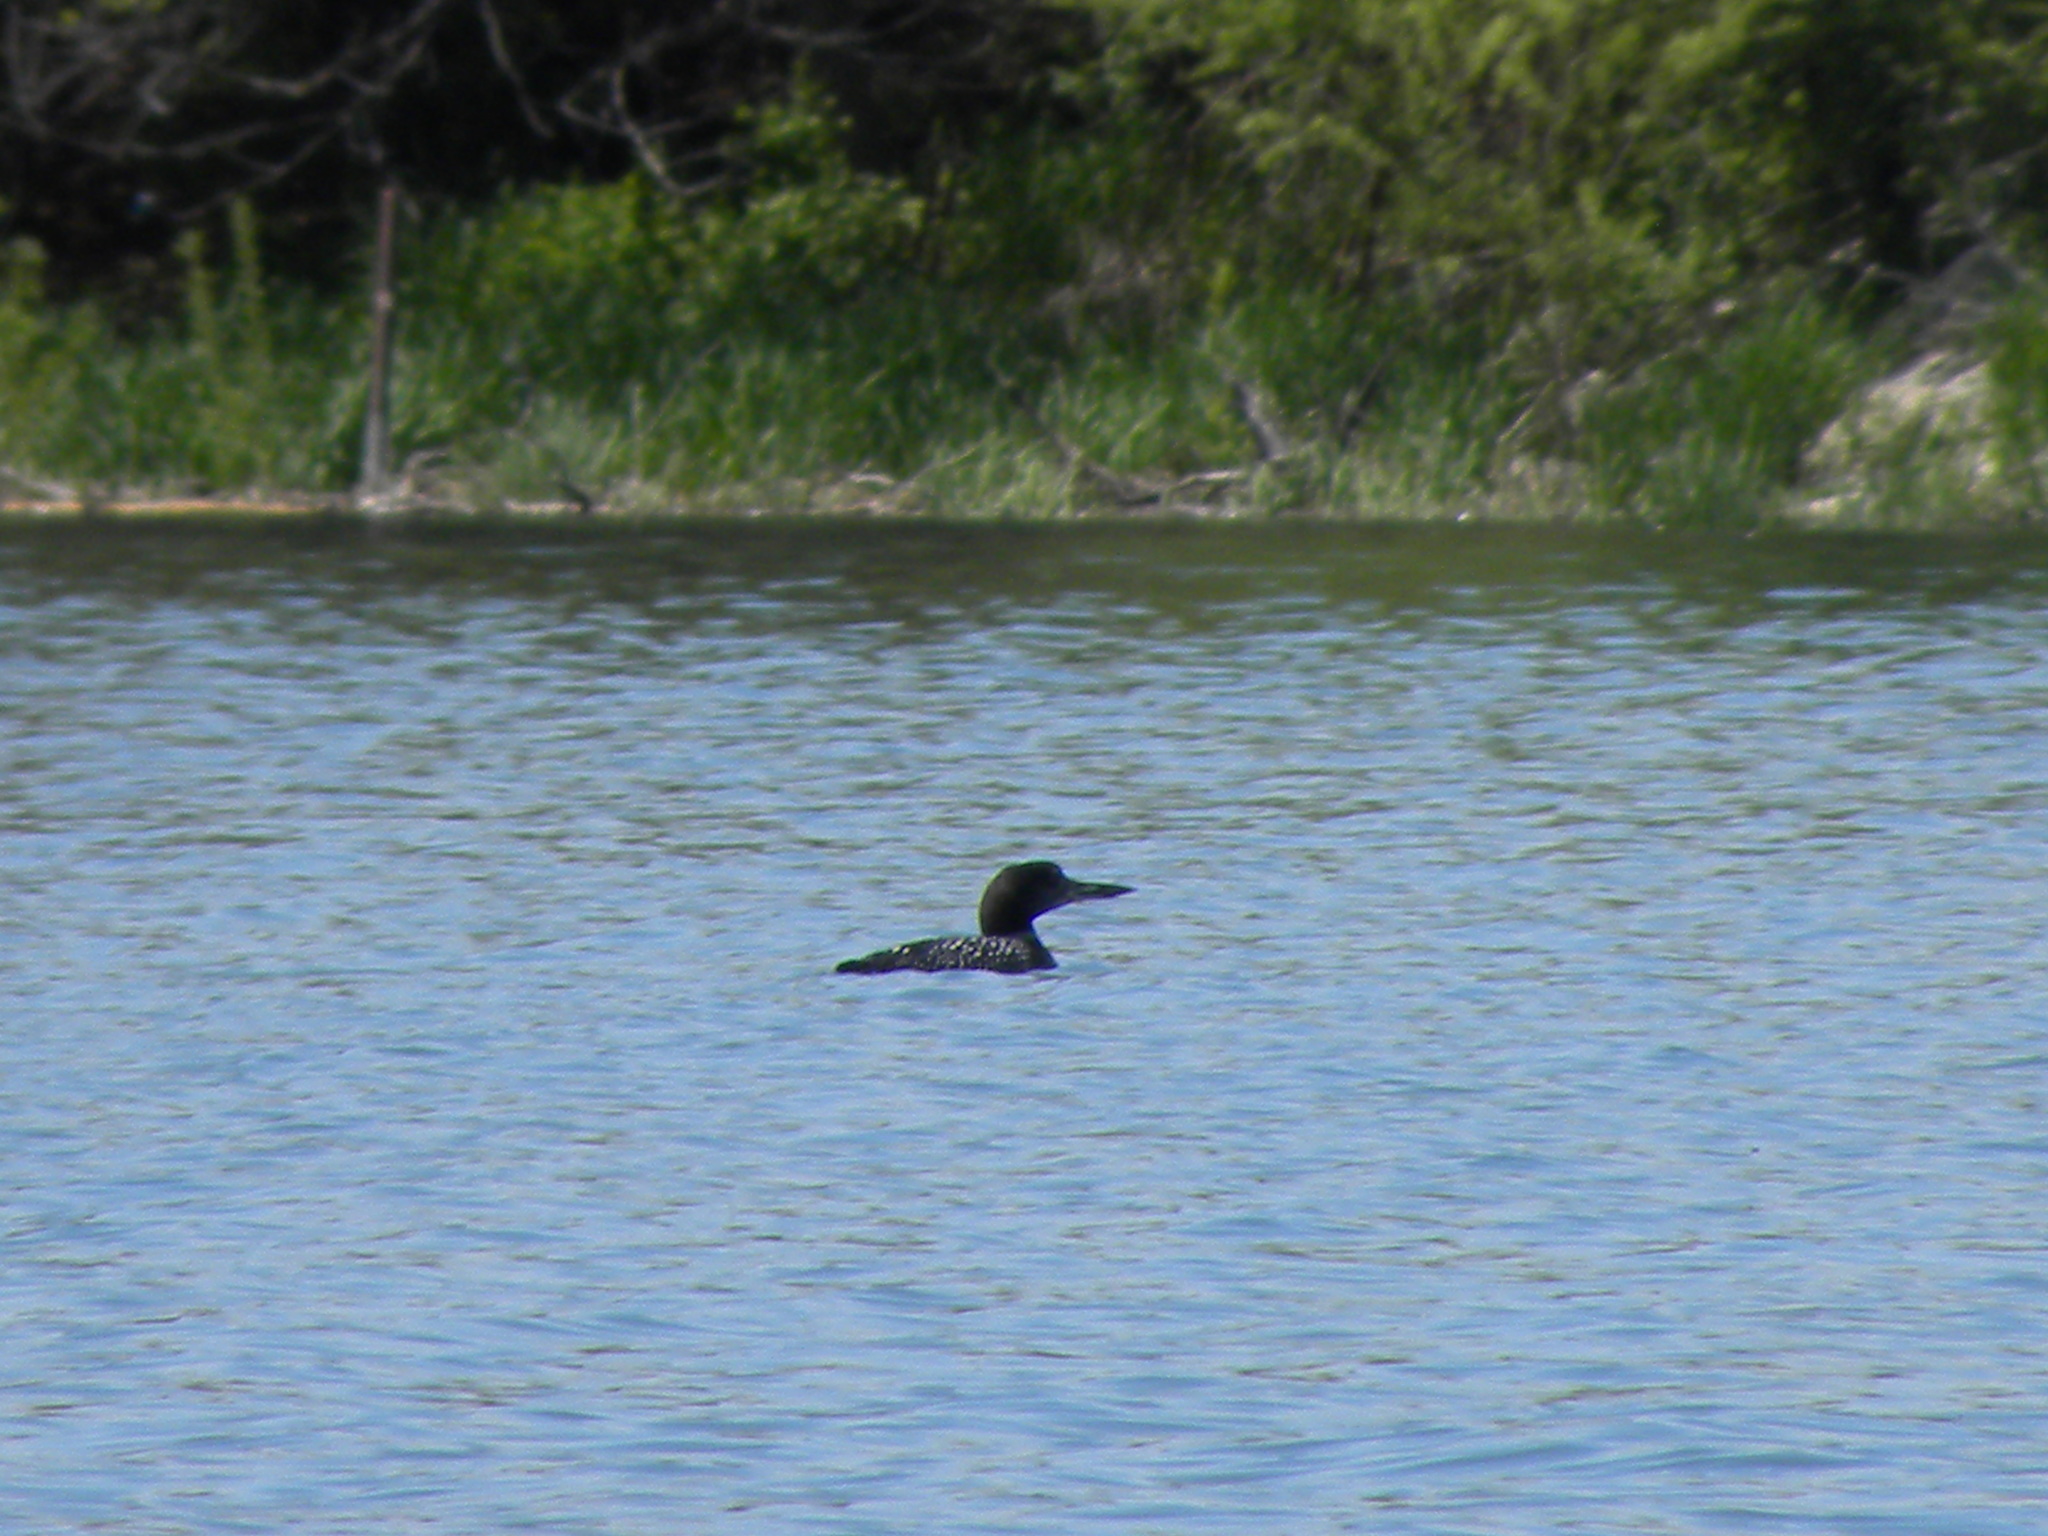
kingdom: Animalia
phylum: Chordata
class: Aves
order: Gaviiformes
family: Gaviidae
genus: Gavia
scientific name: Gavia immer
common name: Common loon
